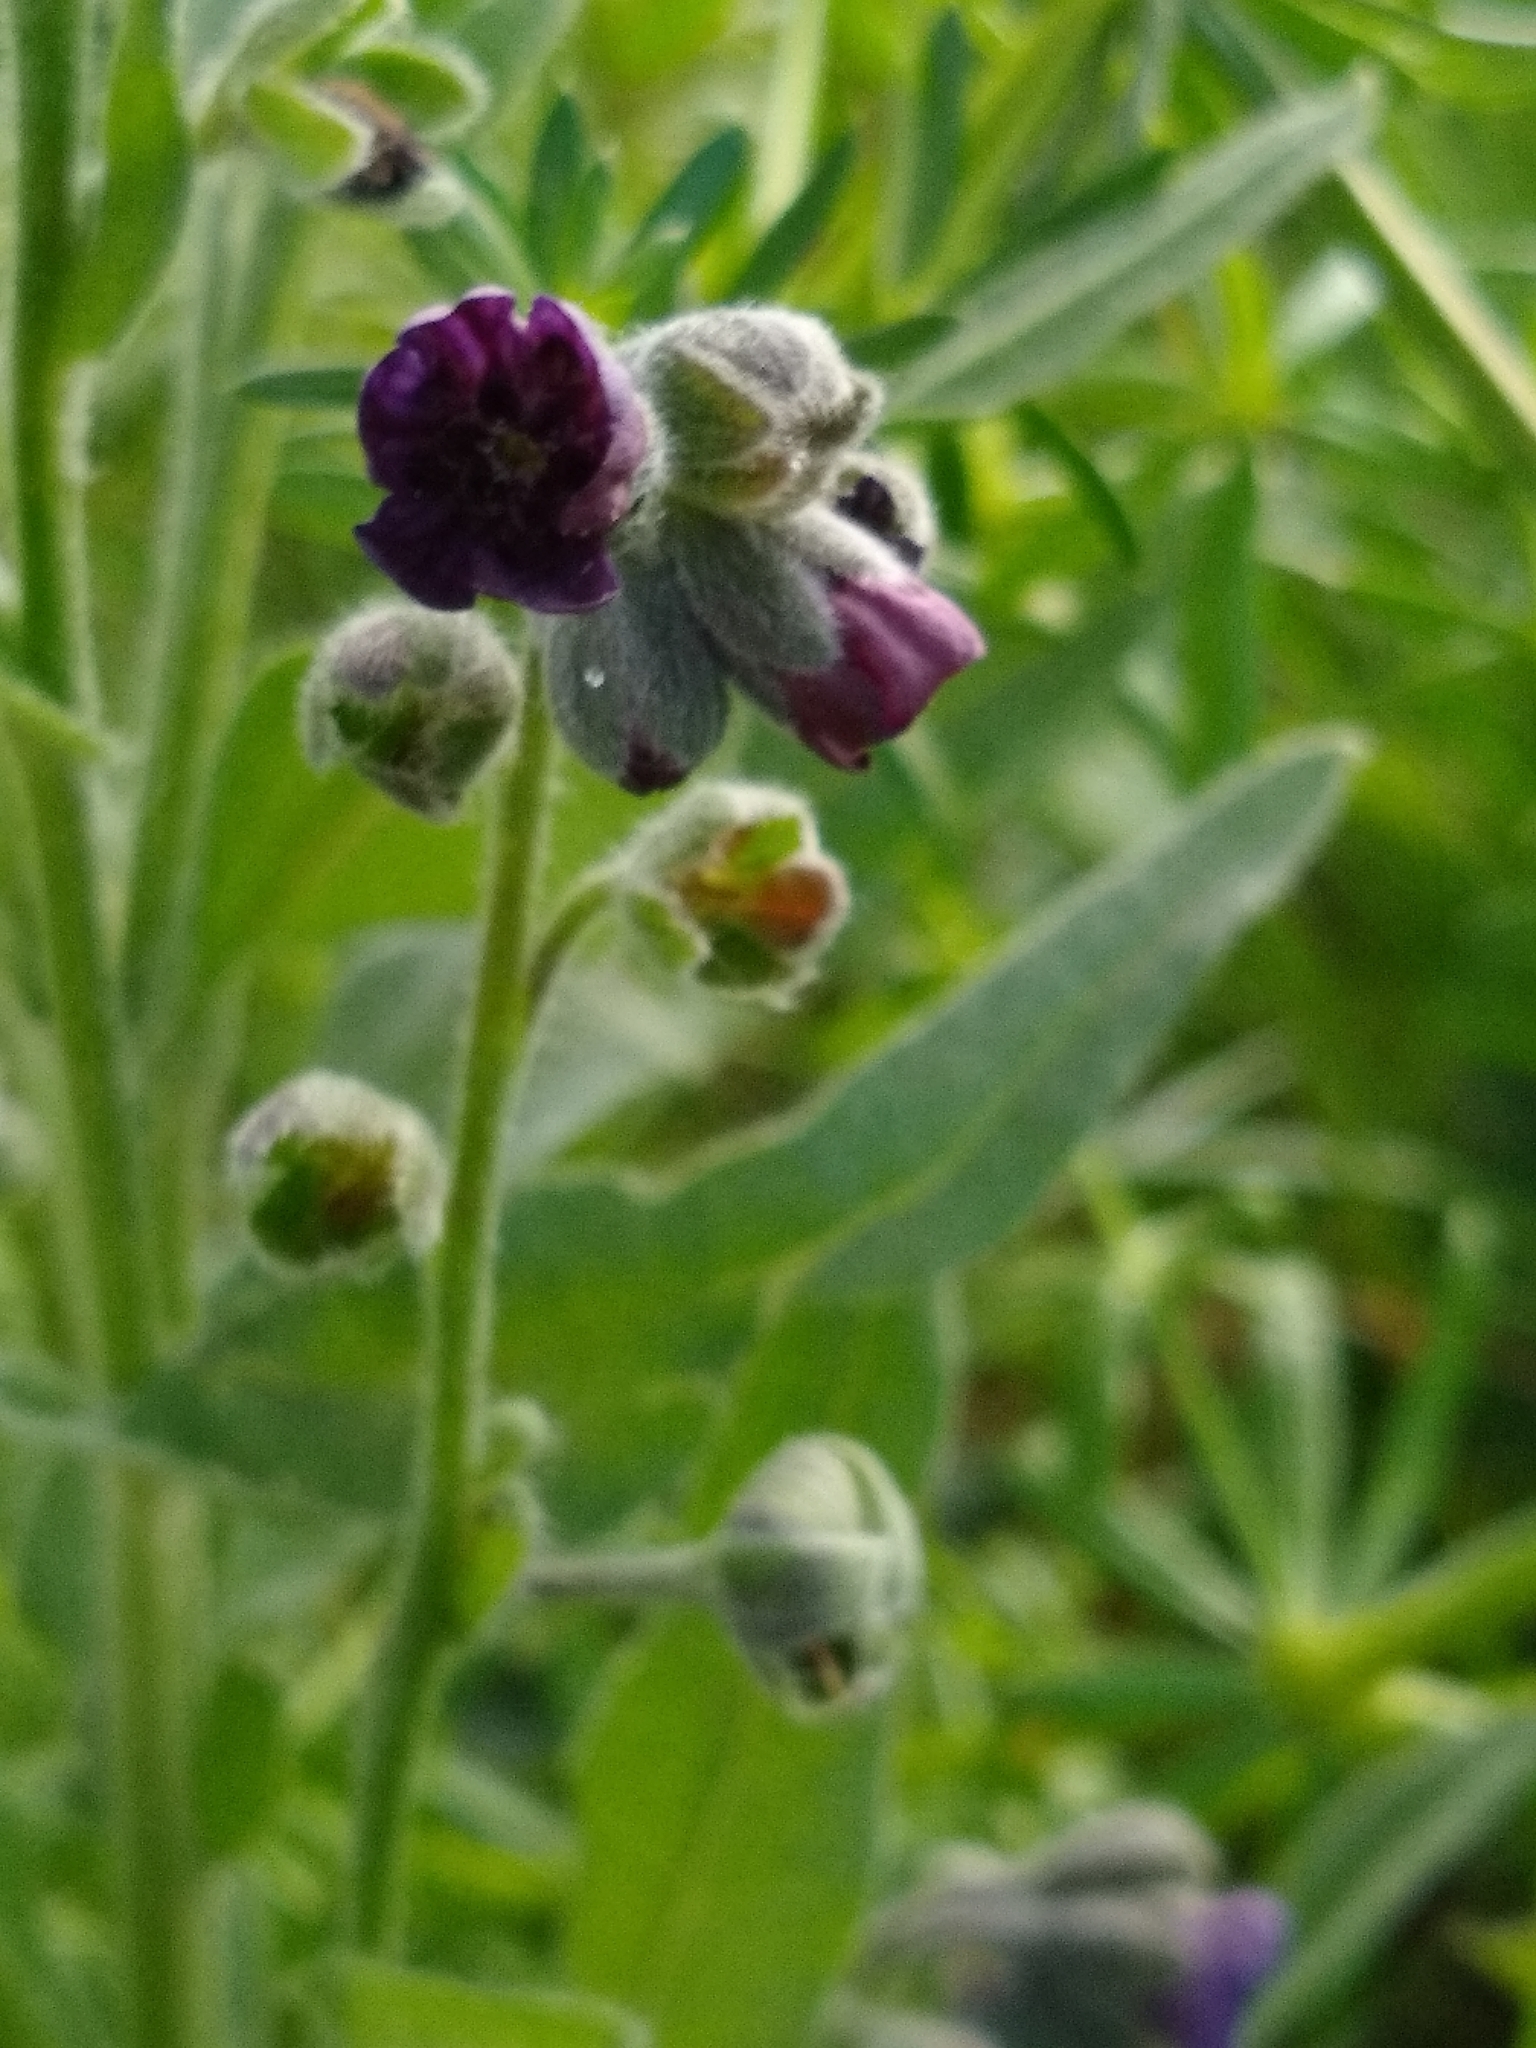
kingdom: Plantae
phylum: Tracheophyta
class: Magnoliopsida
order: Boraginales
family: Boraginaceae
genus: Cynoglossum
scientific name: Cynoglossum officinale
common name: Hound's-tongue
